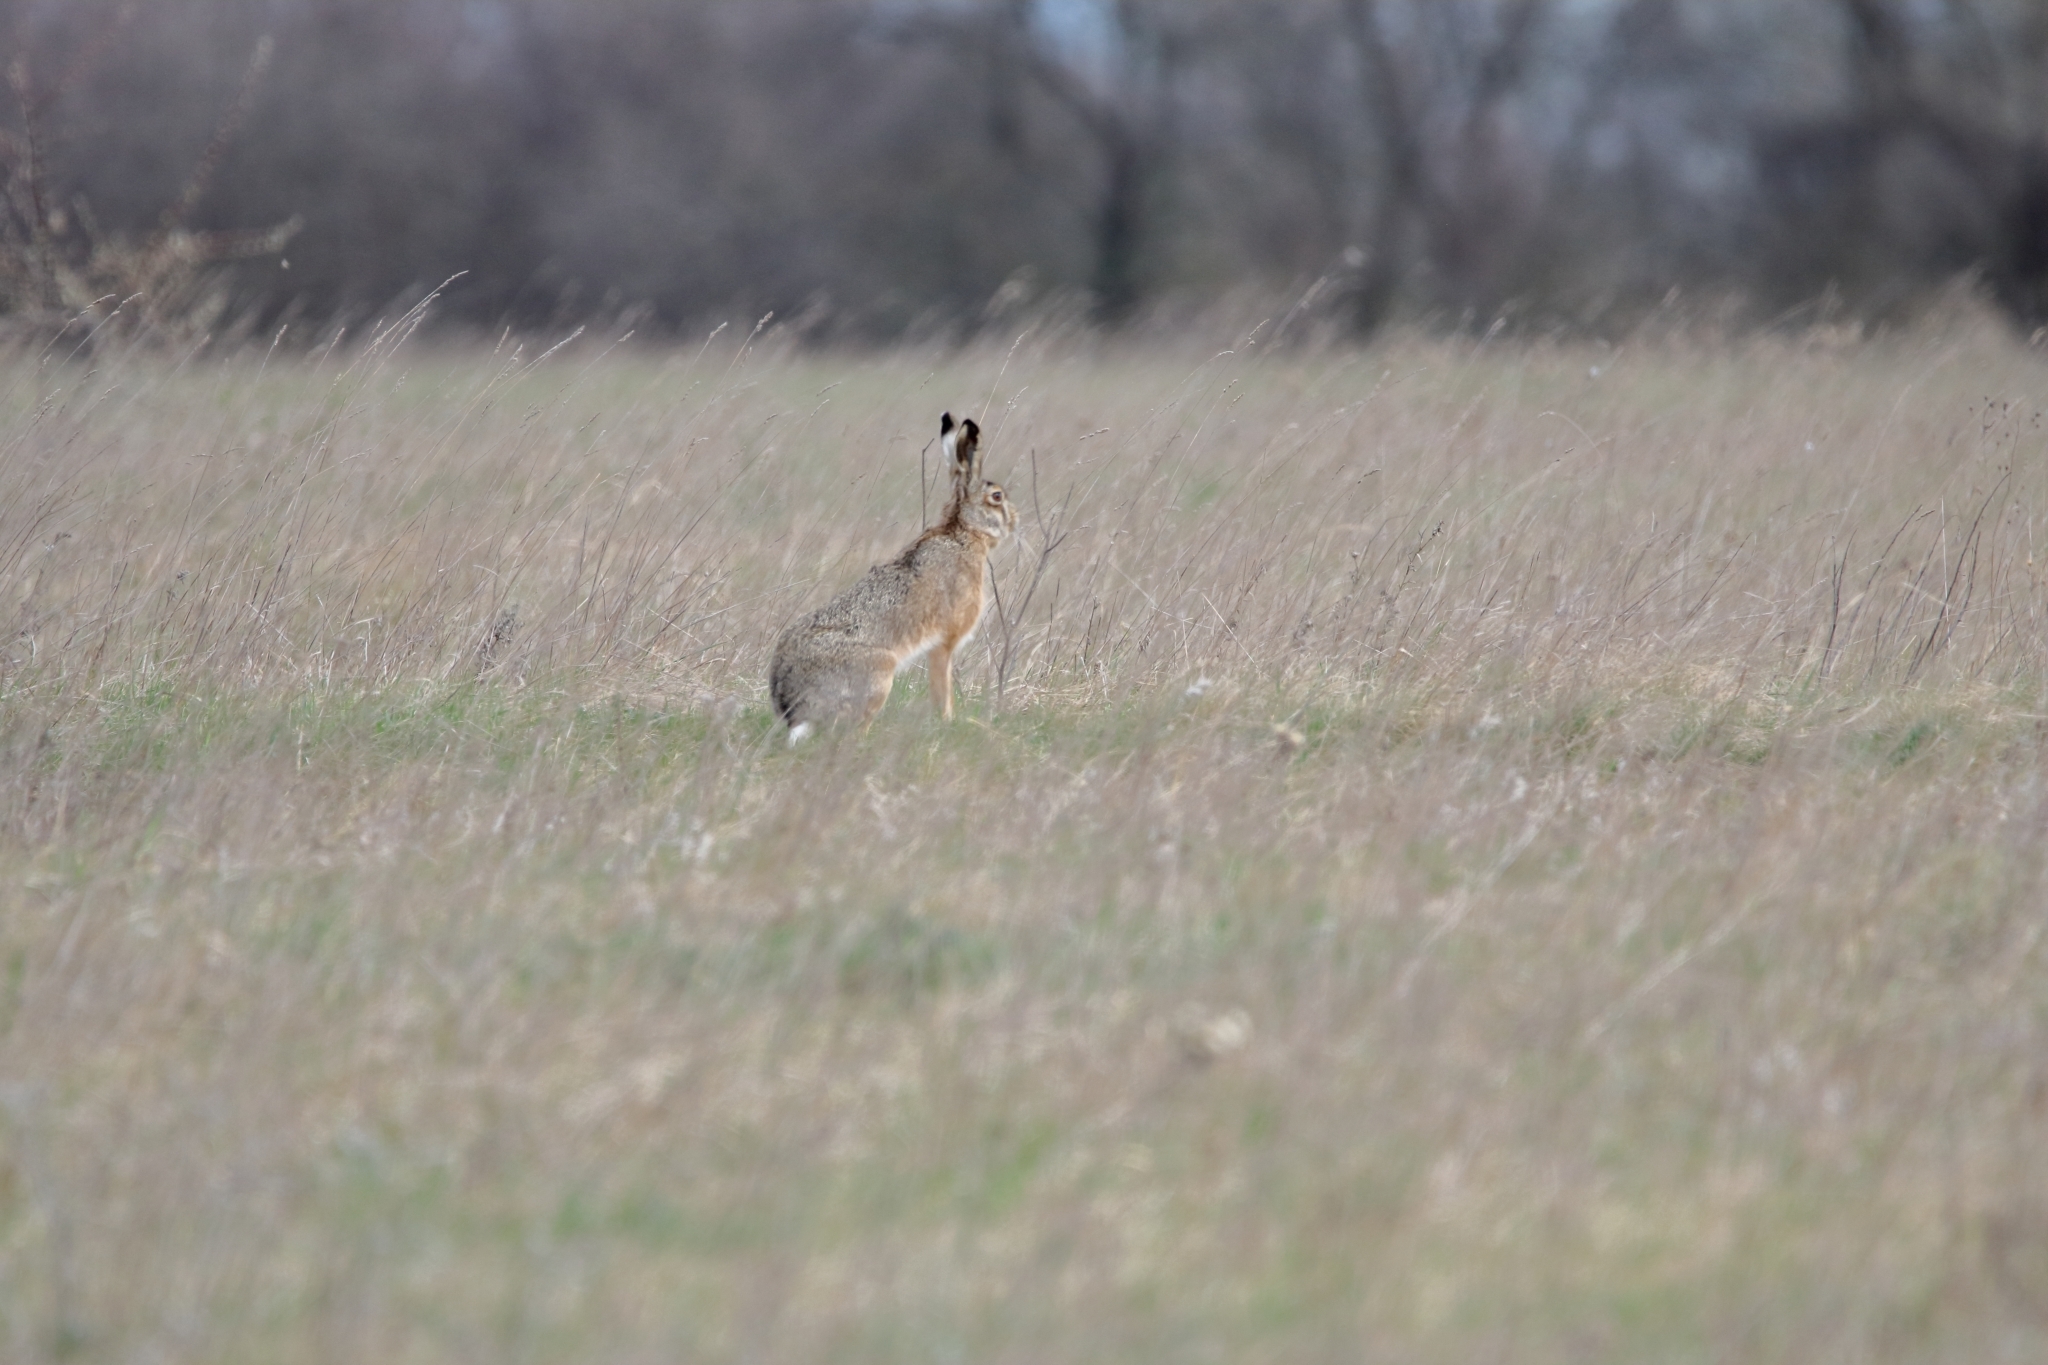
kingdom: Animalia
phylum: Chordata
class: Mammalia
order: Lagomorpha
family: Leporidae
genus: Lepus
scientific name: Lepus europaeus
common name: European hare
